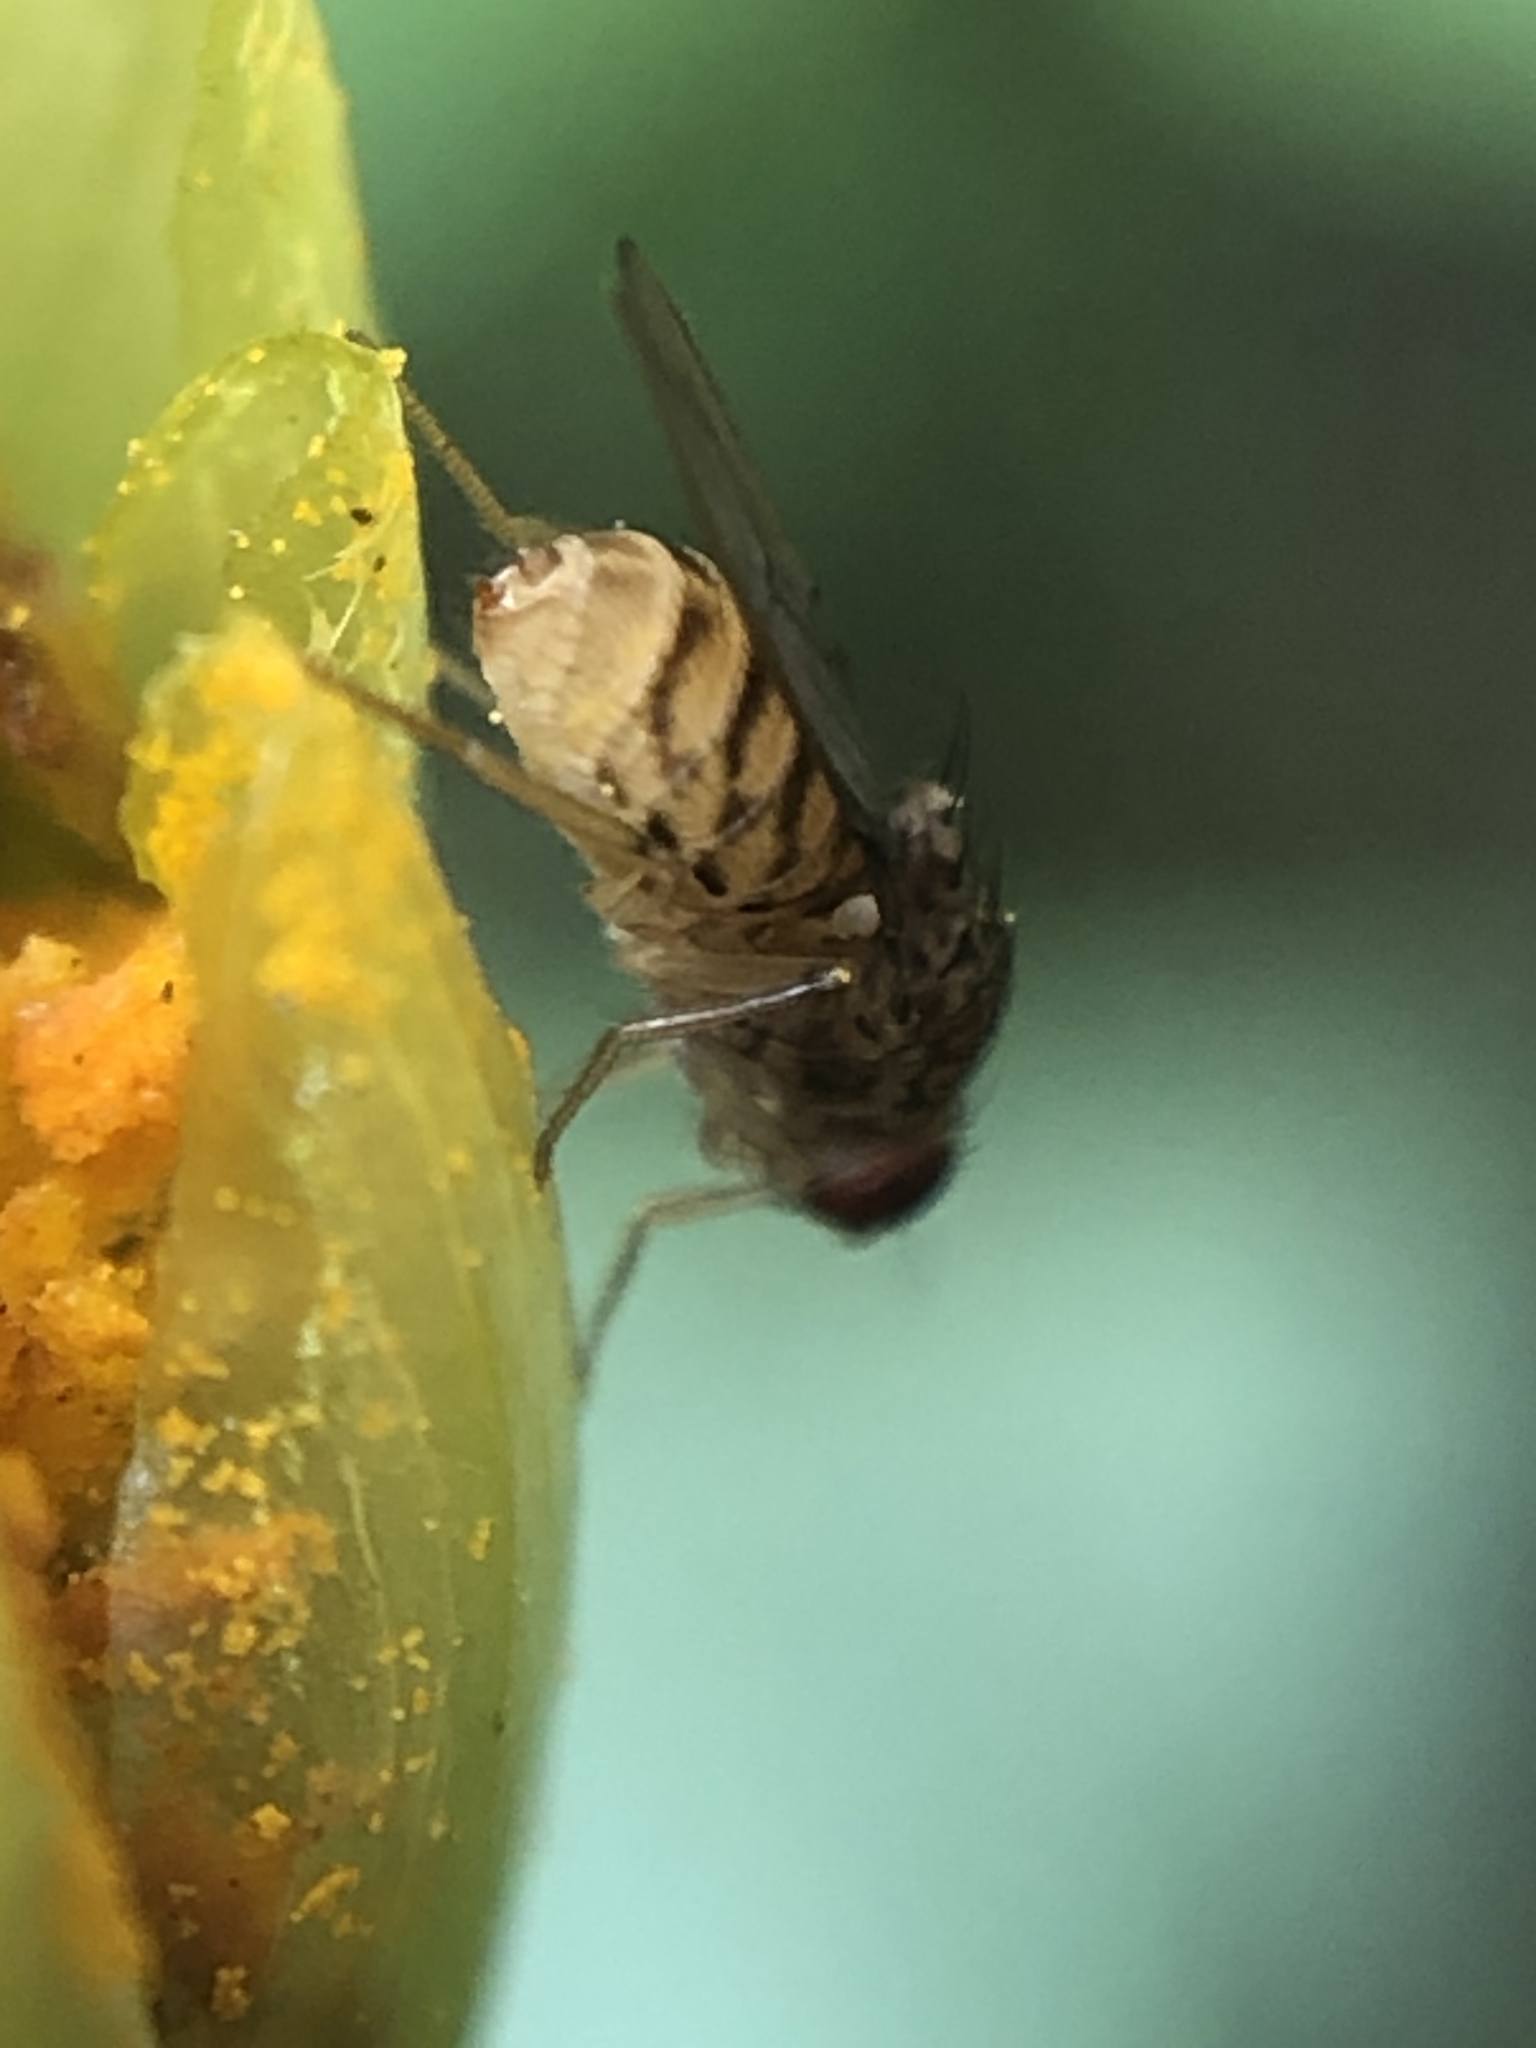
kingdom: Animalia
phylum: Arthropoda
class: Insecta
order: Diptera
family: Drosophilidae
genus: Drosophila
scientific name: Drosophila
